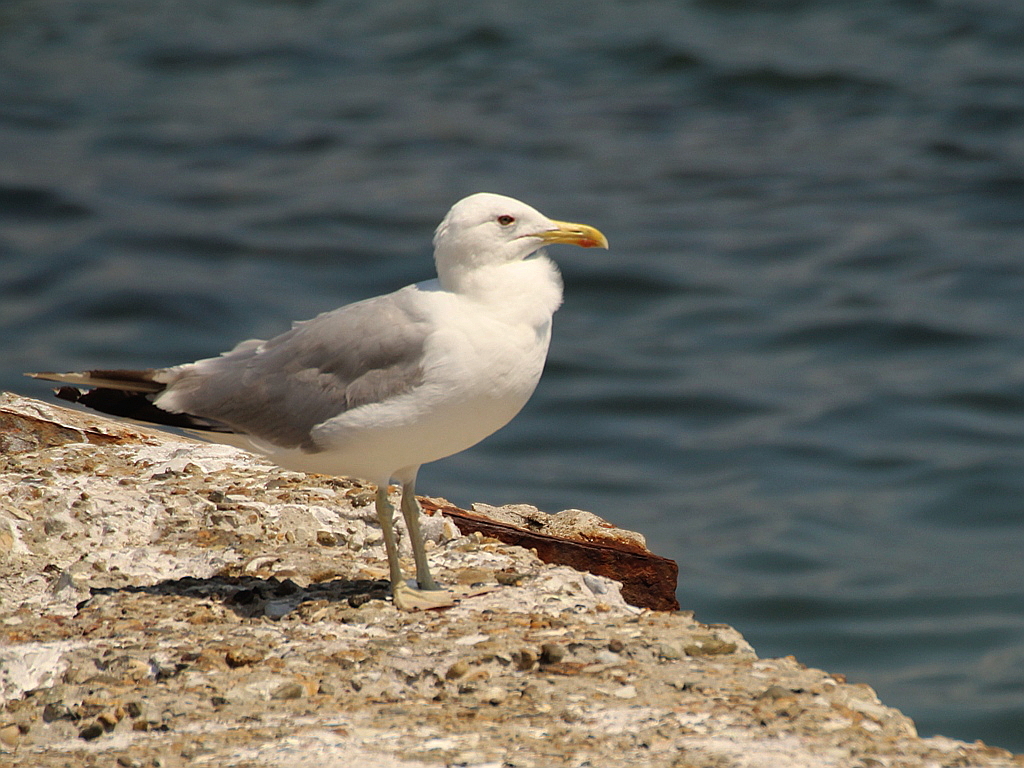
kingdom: Animalia
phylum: Chordata
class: Aves
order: Charadriiformes
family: Laridae
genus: Larus
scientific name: Larus cachinnans
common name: Caspian gull
